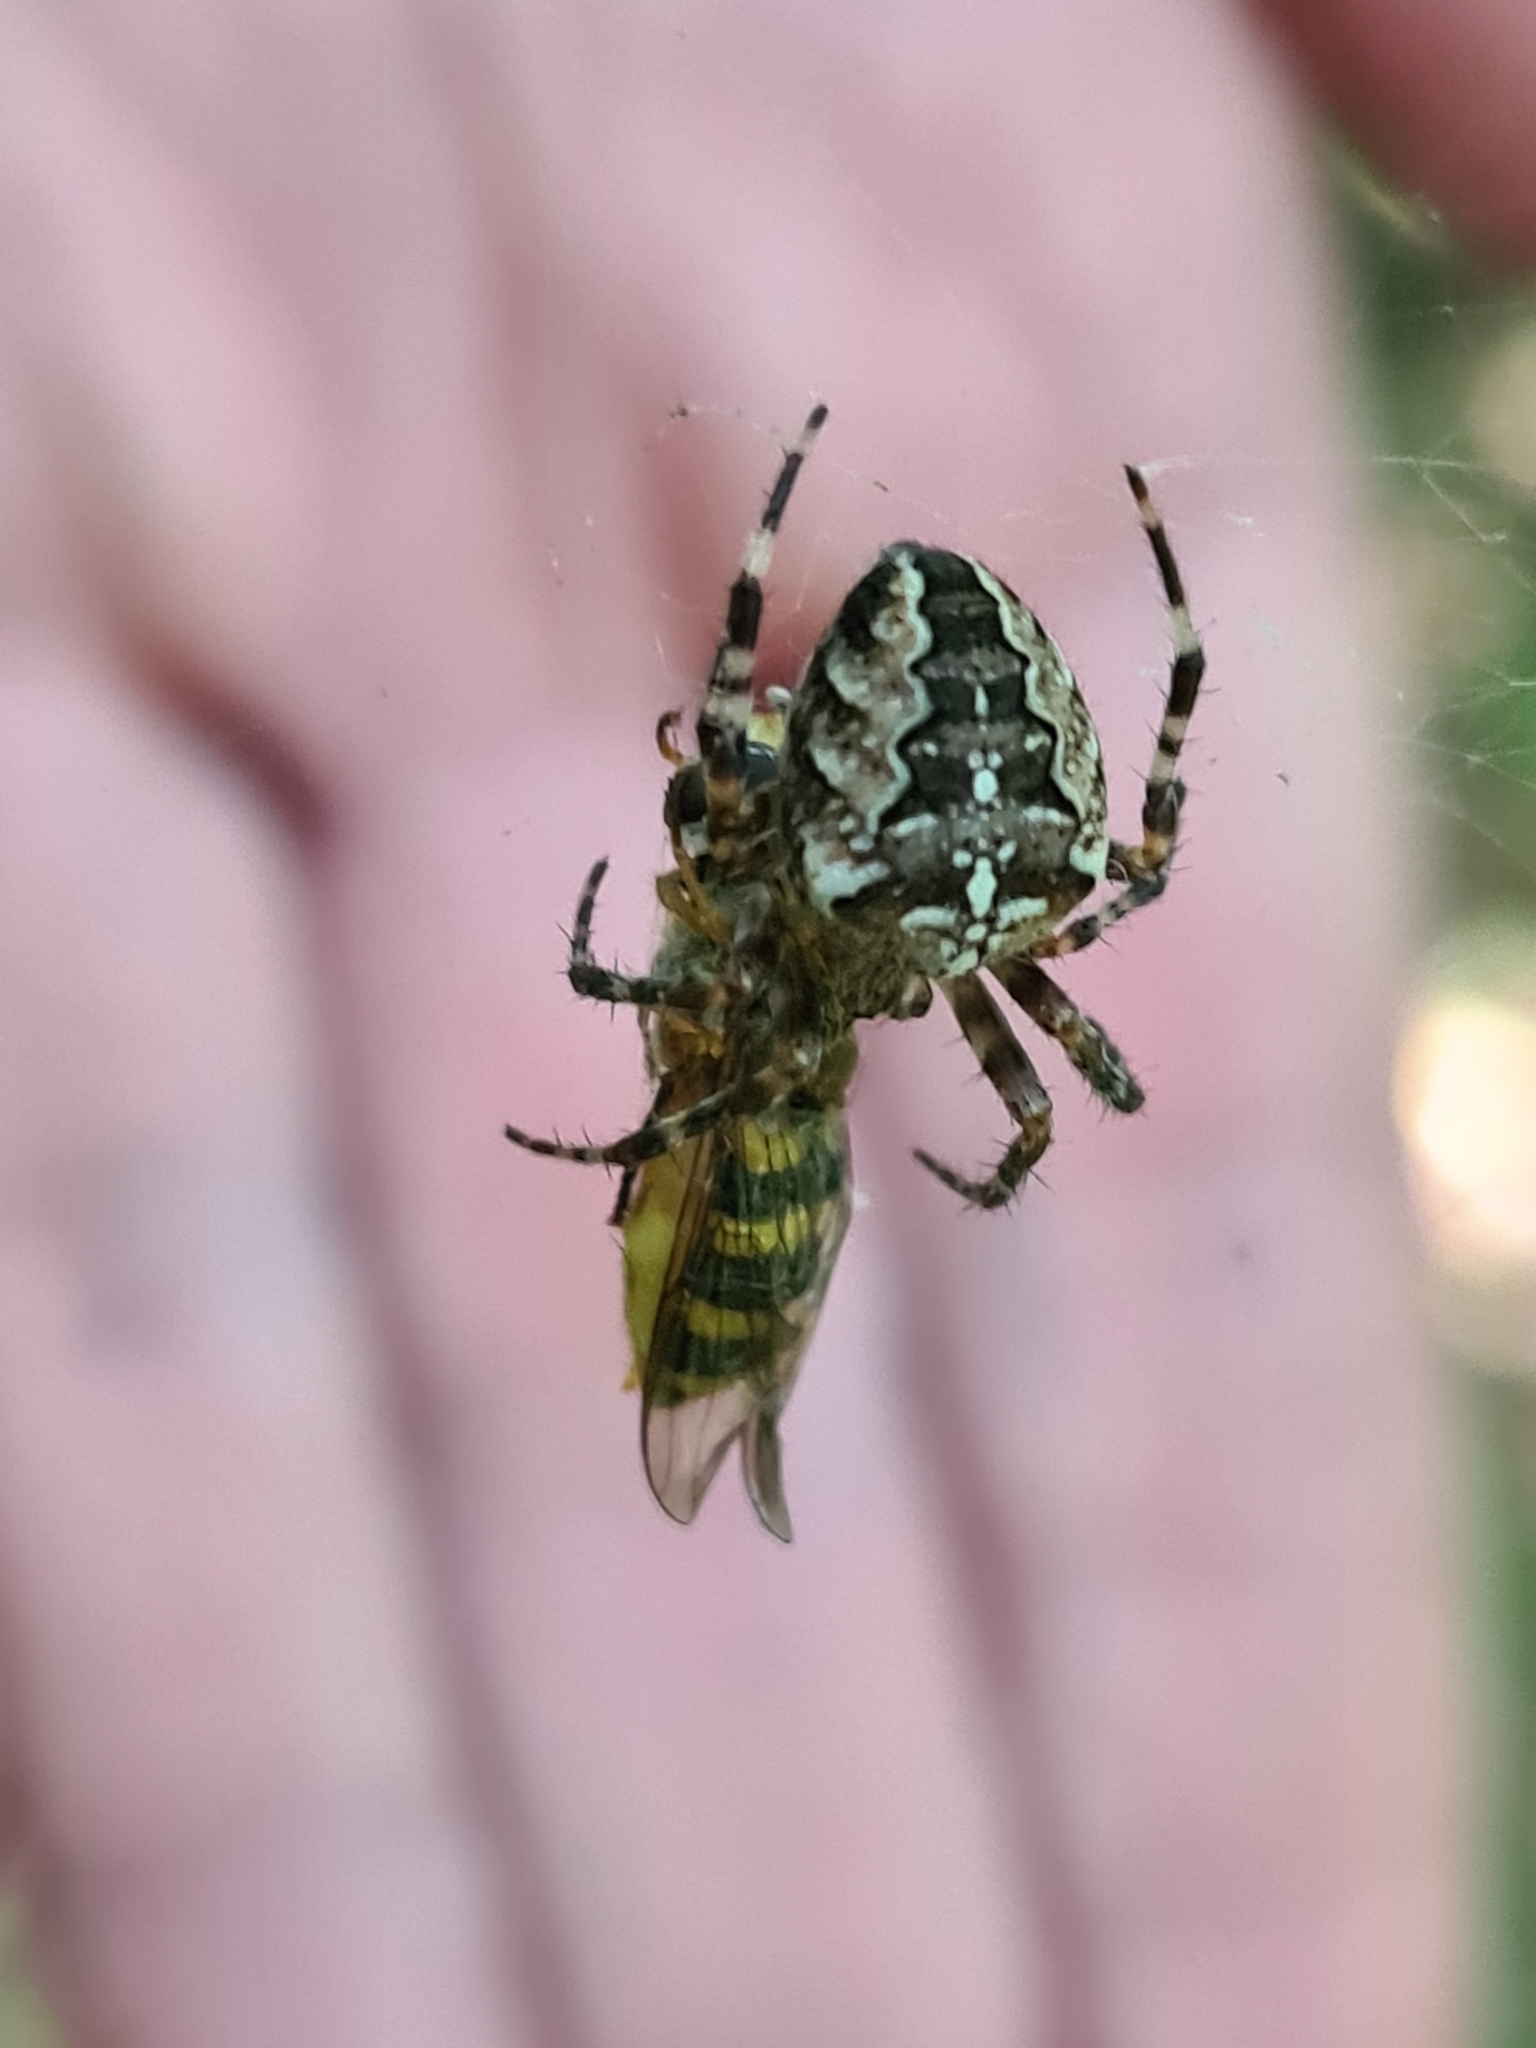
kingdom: Animalia
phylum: Arthropoda
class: Arachnida
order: Araneae
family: Araneidae
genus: Araneus
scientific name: Araneus diadematus
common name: Cross orbweaver
